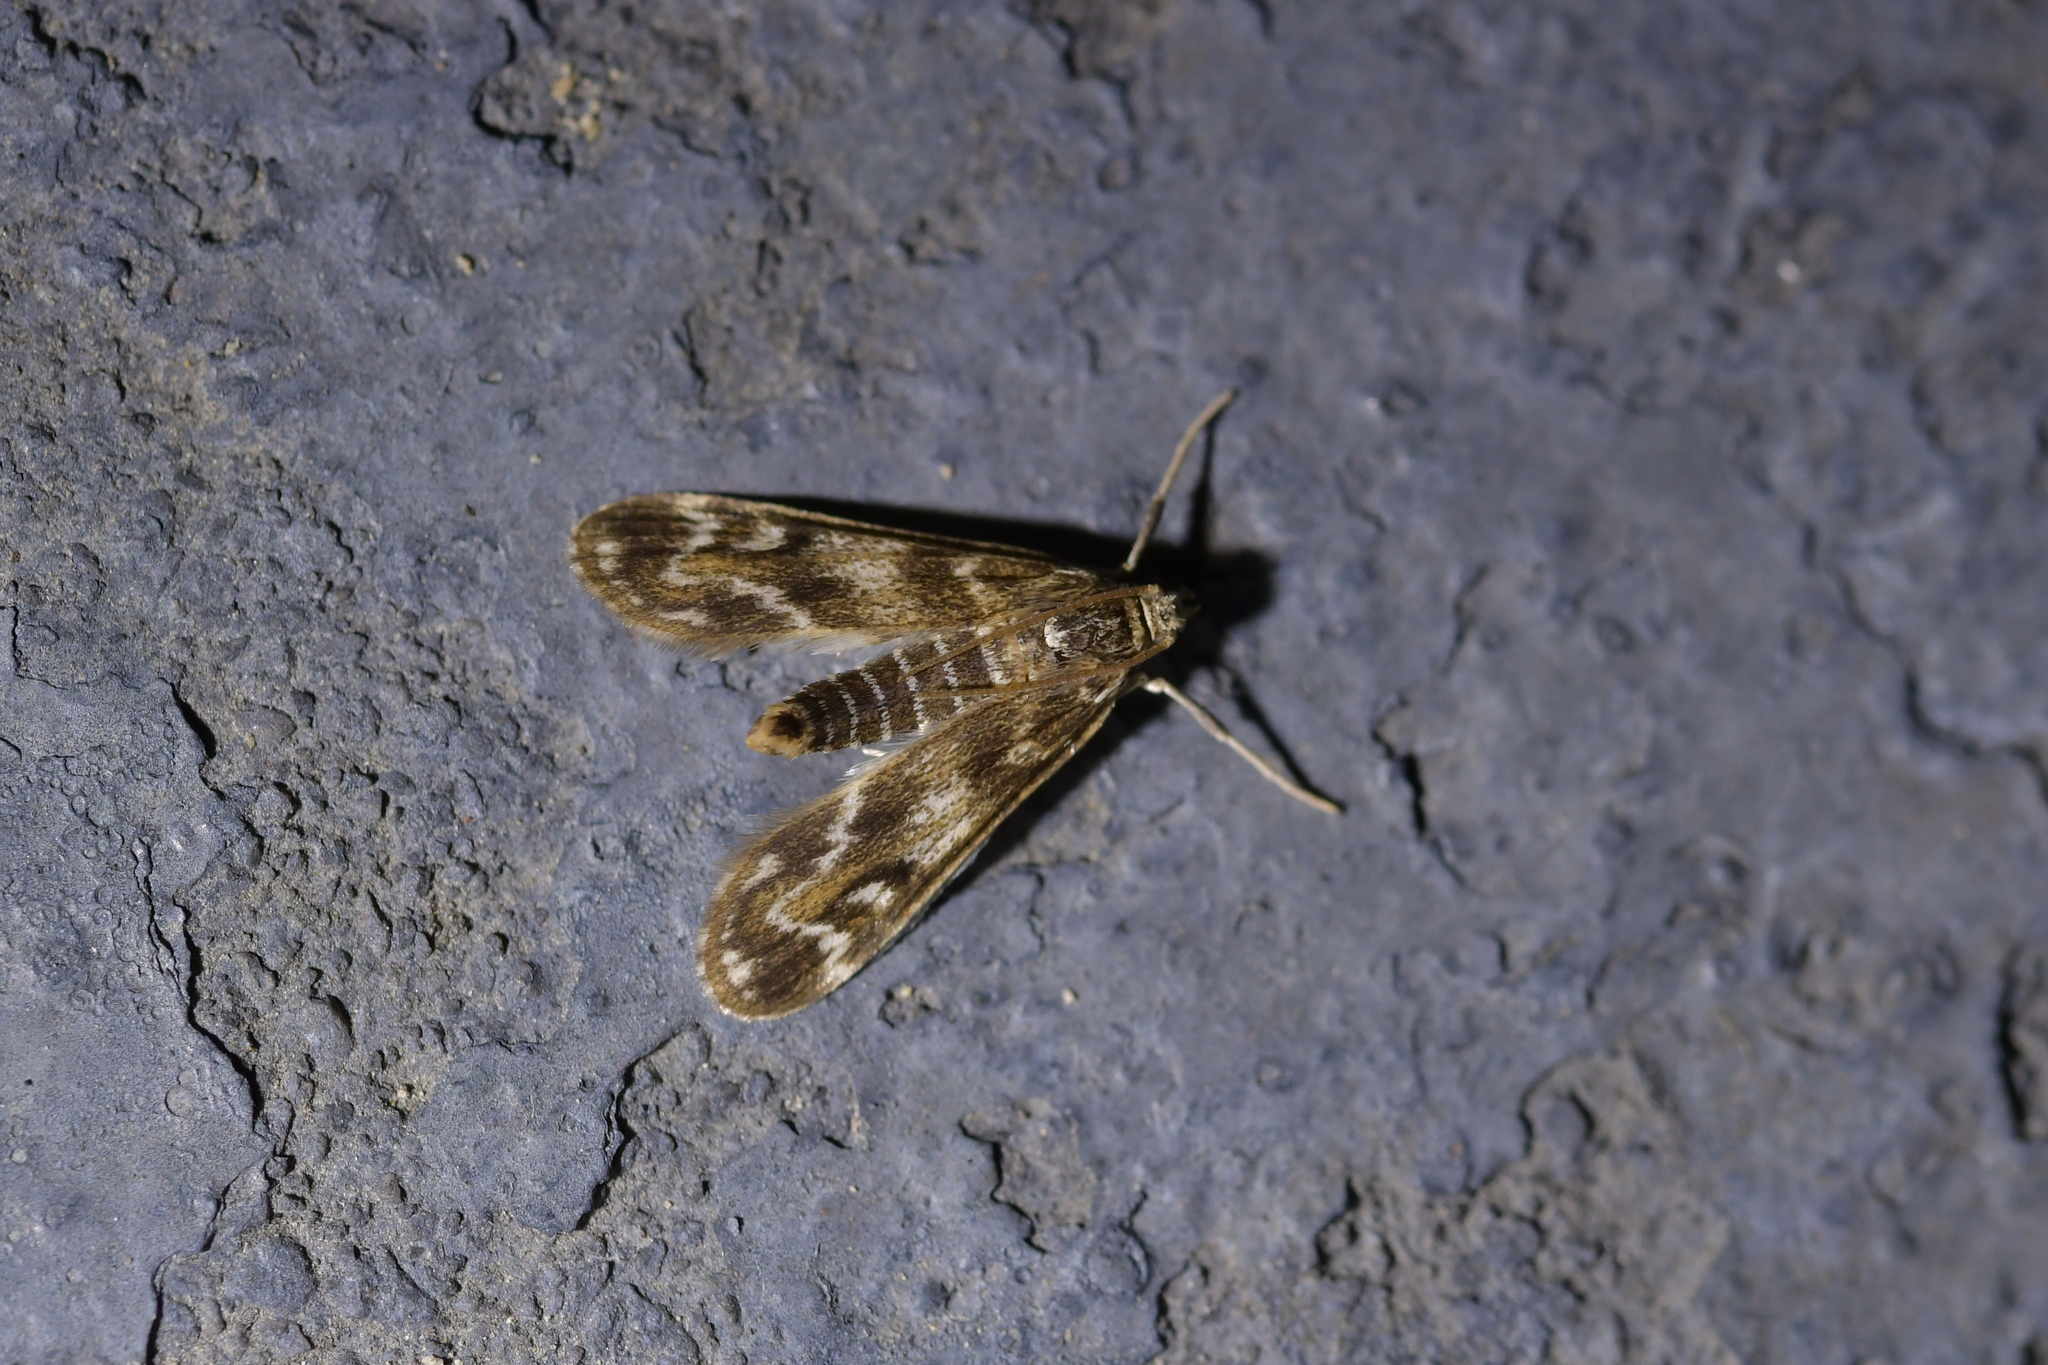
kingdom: Animalia
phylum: Arthropoda
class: Insecta
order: Lepidoptera
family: Crambidae
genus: Hygraula
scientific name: Hygraula nitens
